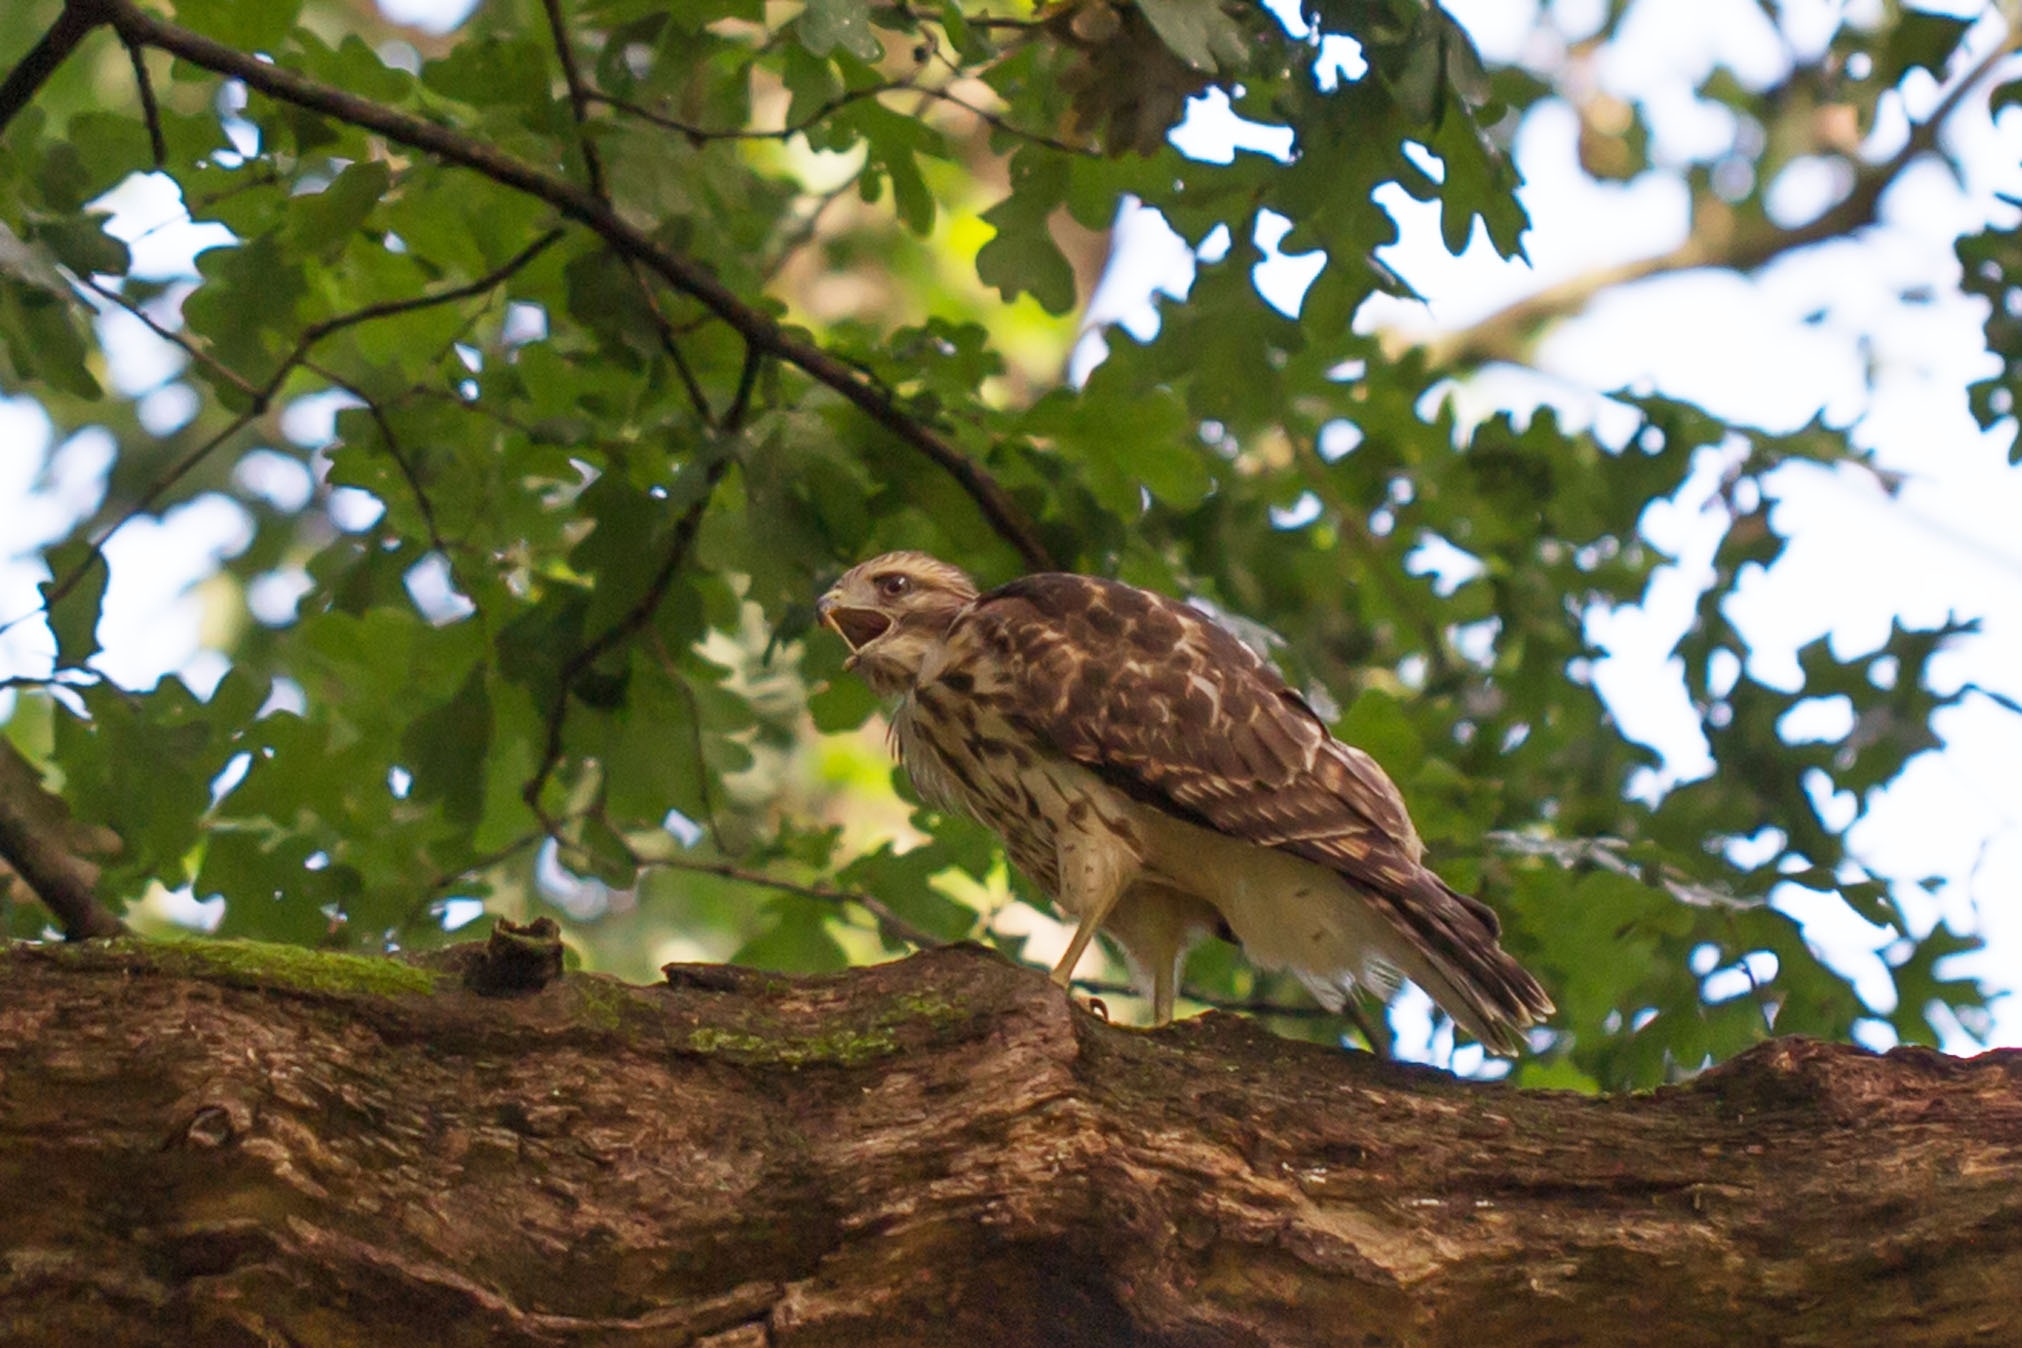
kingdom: Animalia
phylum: Chordata
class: Aves
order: Accipitriformes
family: Accipitridae
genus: Buteo
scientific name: Buteo lineatus
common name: Red-shouldered hawk
